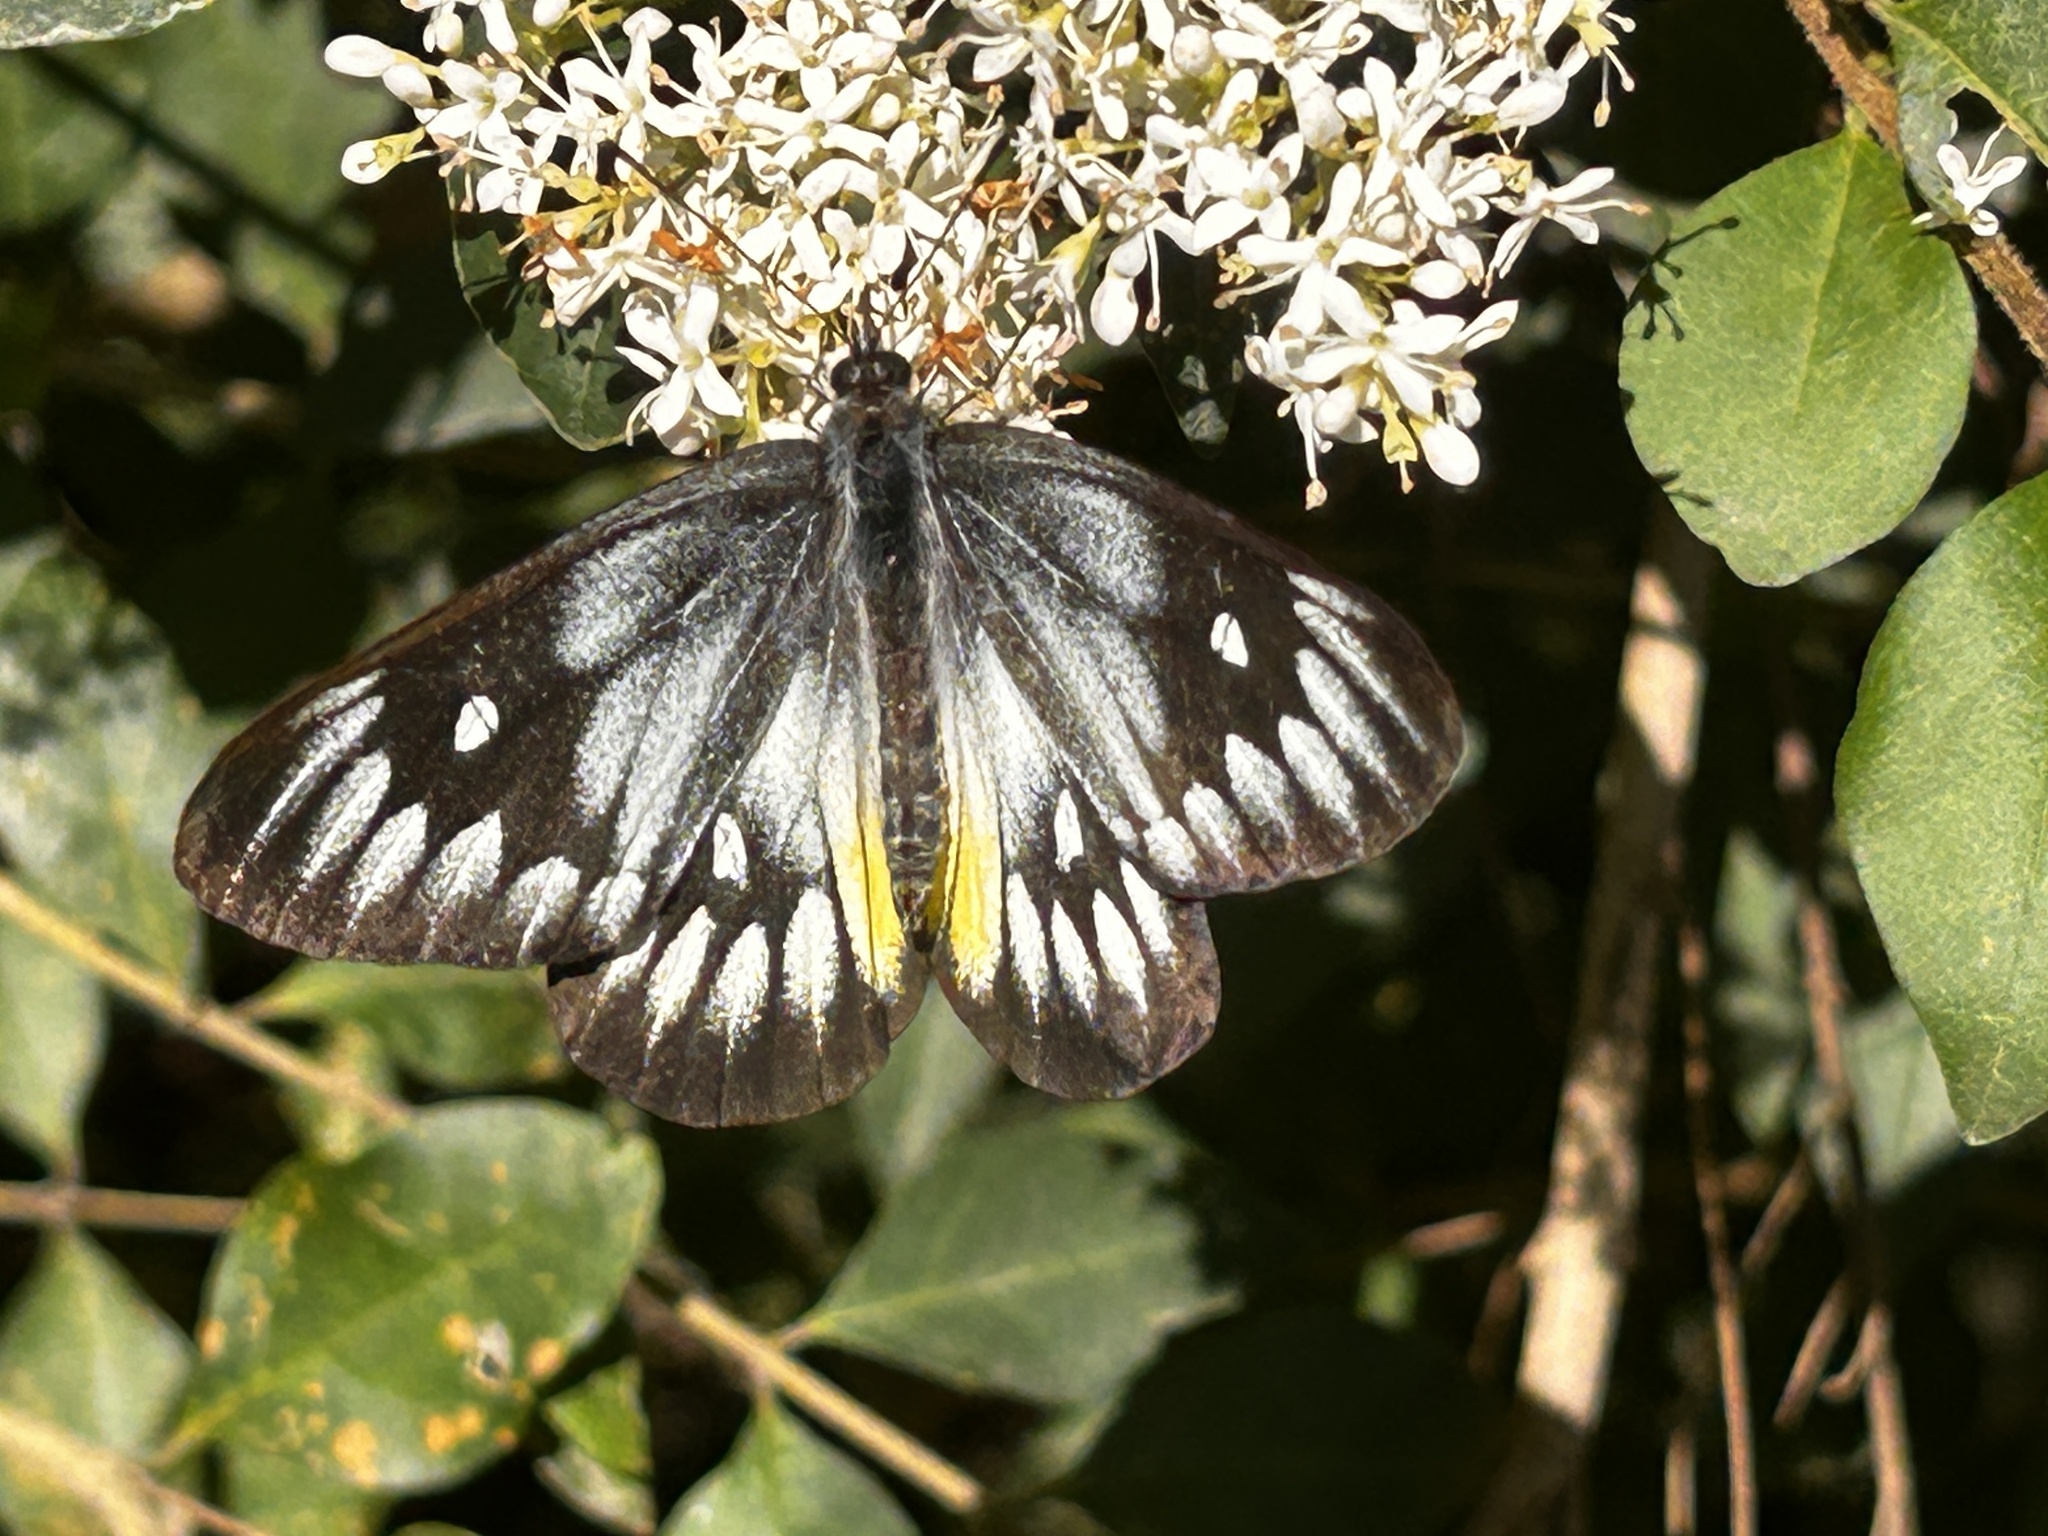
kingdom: Animalia
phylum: Arthropoda
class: Insecta
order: Lepidoptera
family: Pieridae
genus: Delias
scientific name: Delias pasithoe
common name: Red-base jezebel
